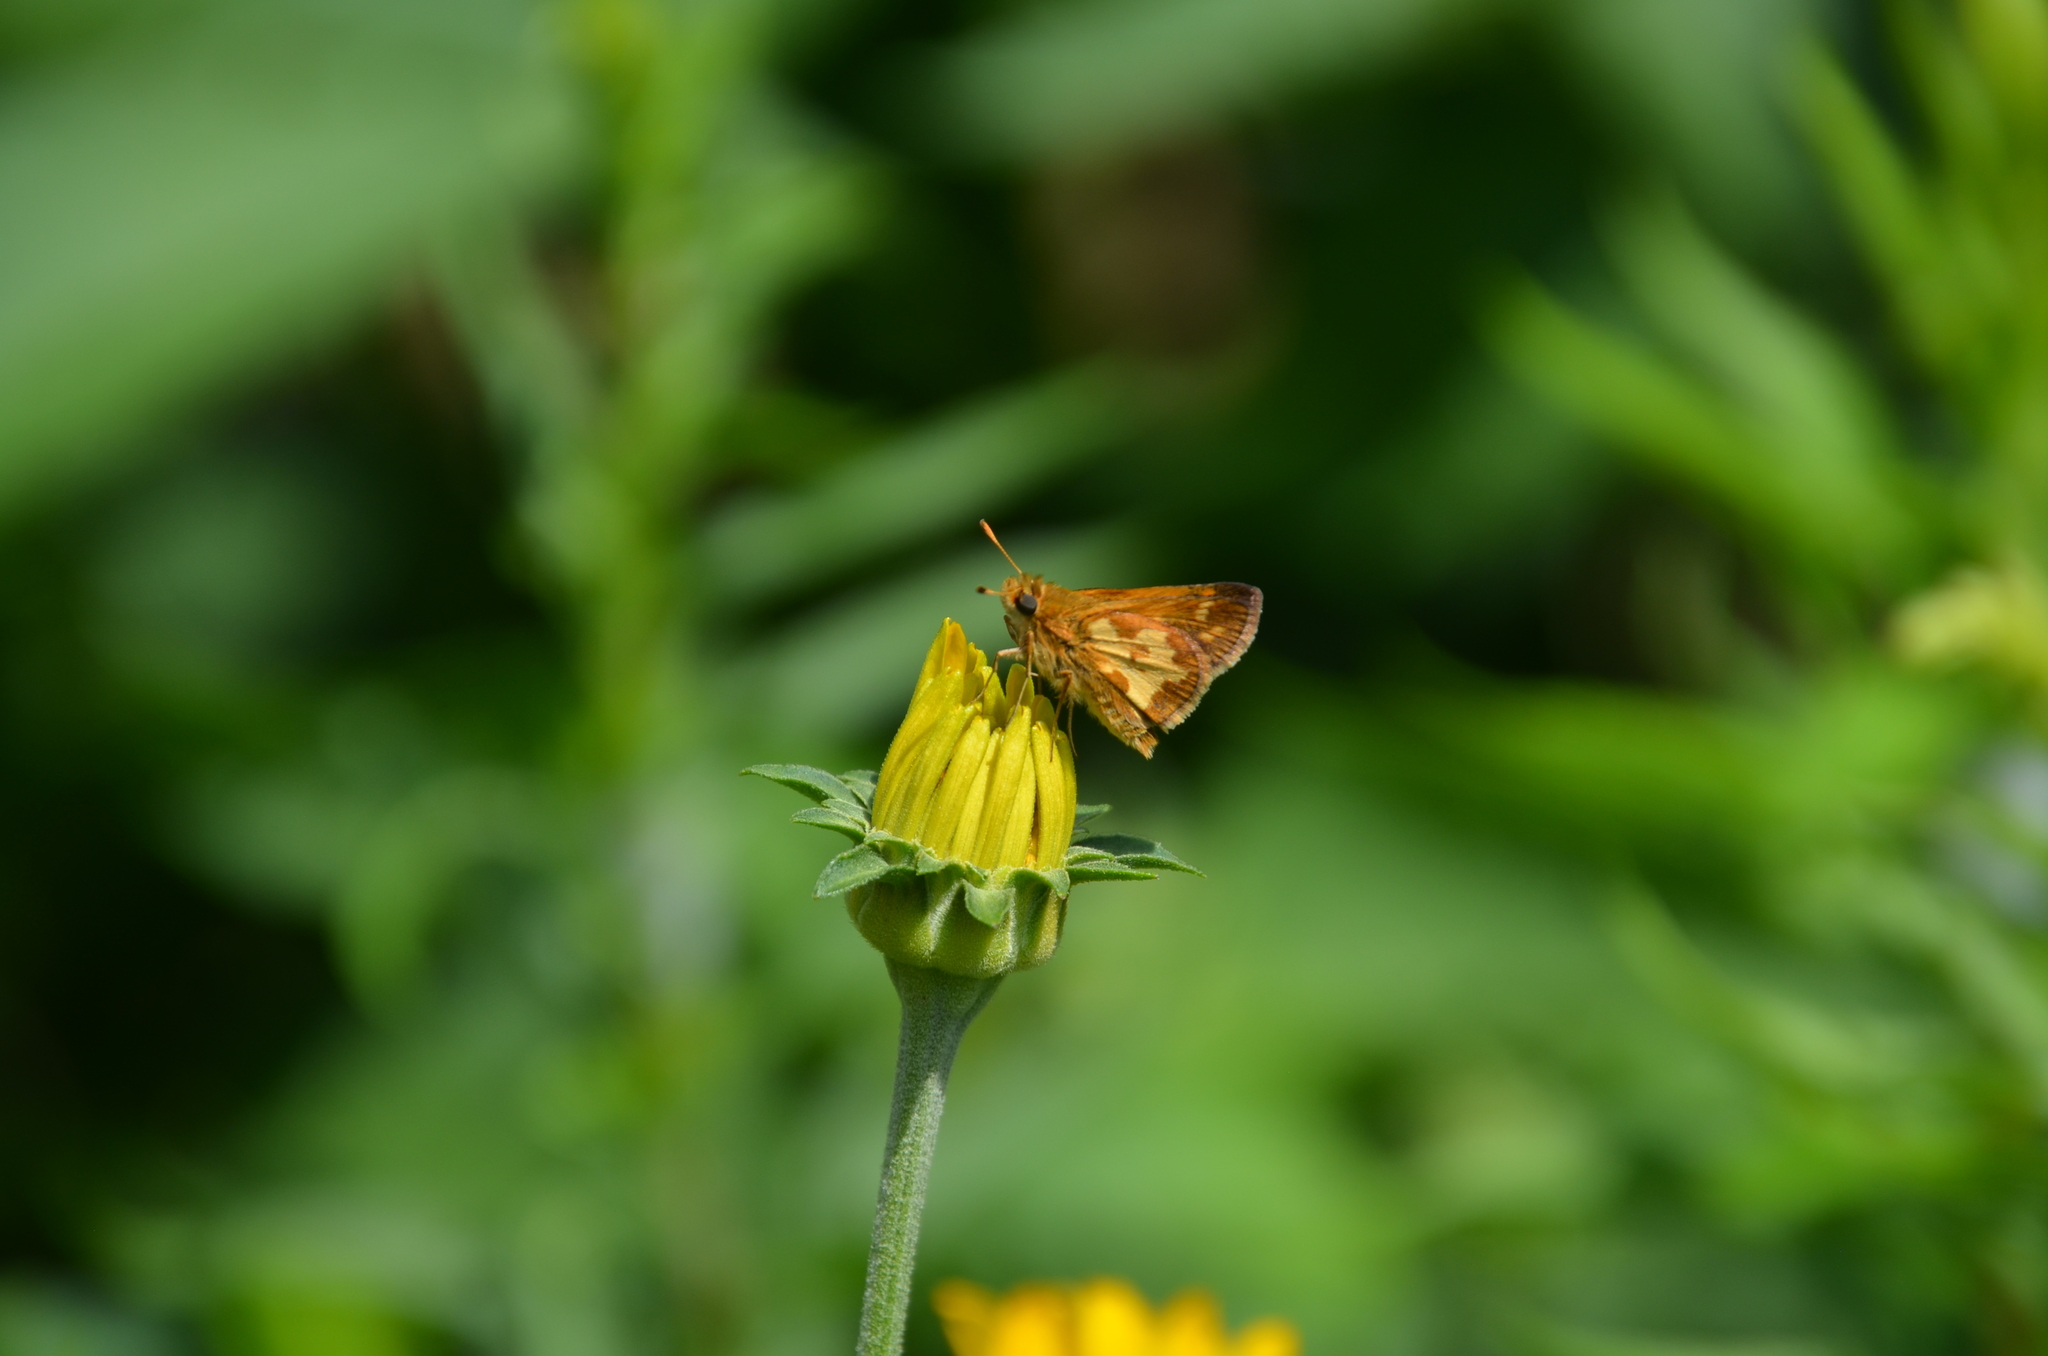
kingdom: Animalia
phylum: Arthropoda
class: Insecta
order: Lepidoptera
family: Hesperiidae
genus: Polites
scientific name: Polites coras
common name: Peck's skipper
